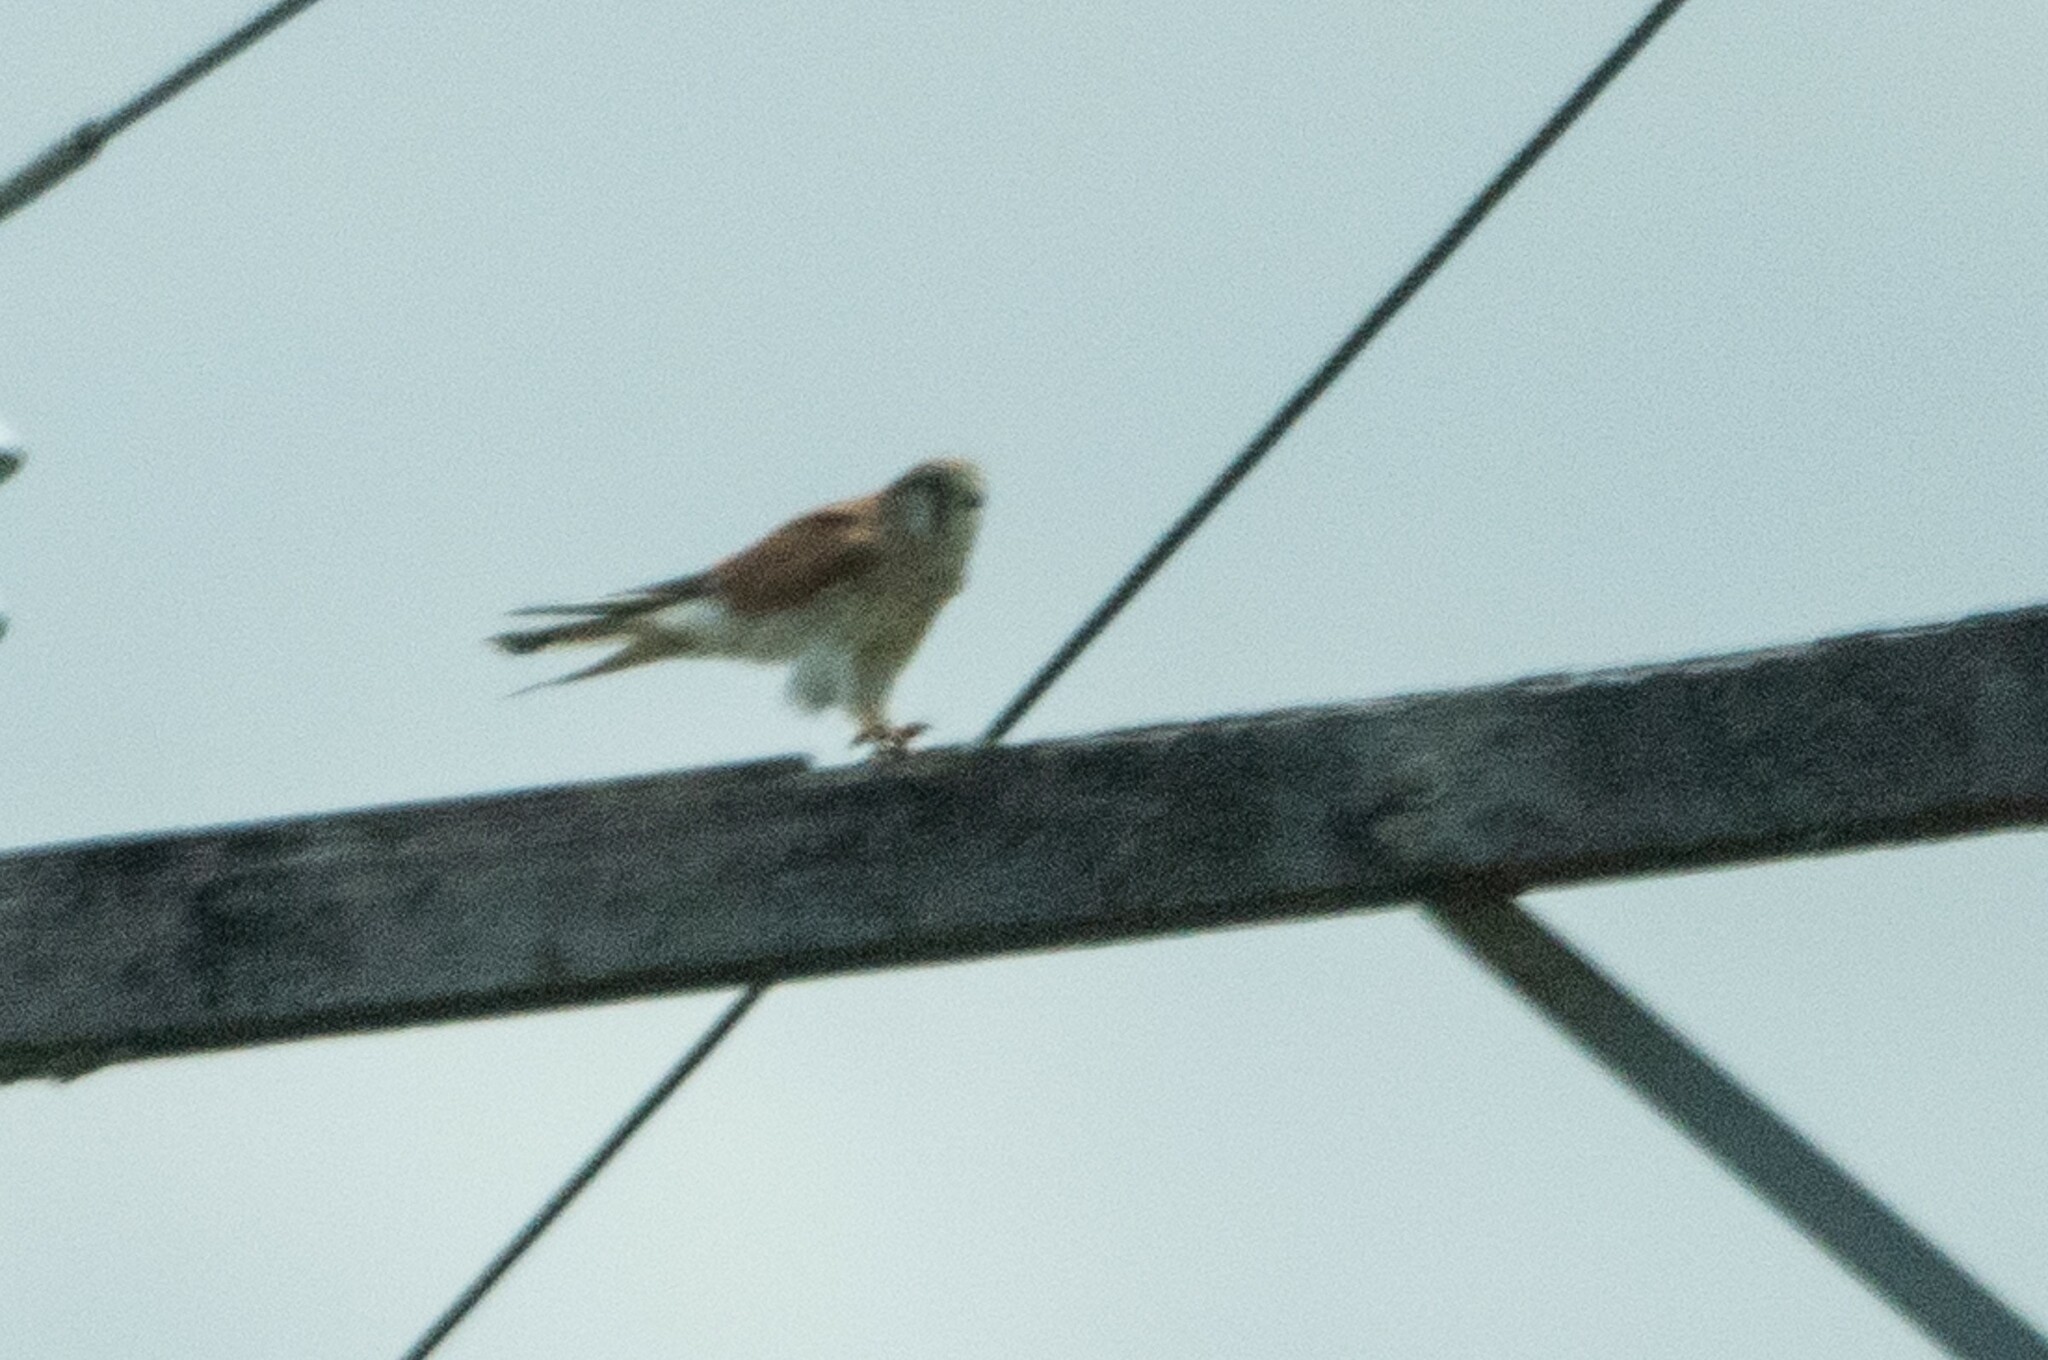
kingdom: Animalia
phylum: Chordata
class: Aves
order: Falconiformes
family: Falconidae
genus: Falco
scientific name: Falco cenchroides
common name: Nankeen kestrel
